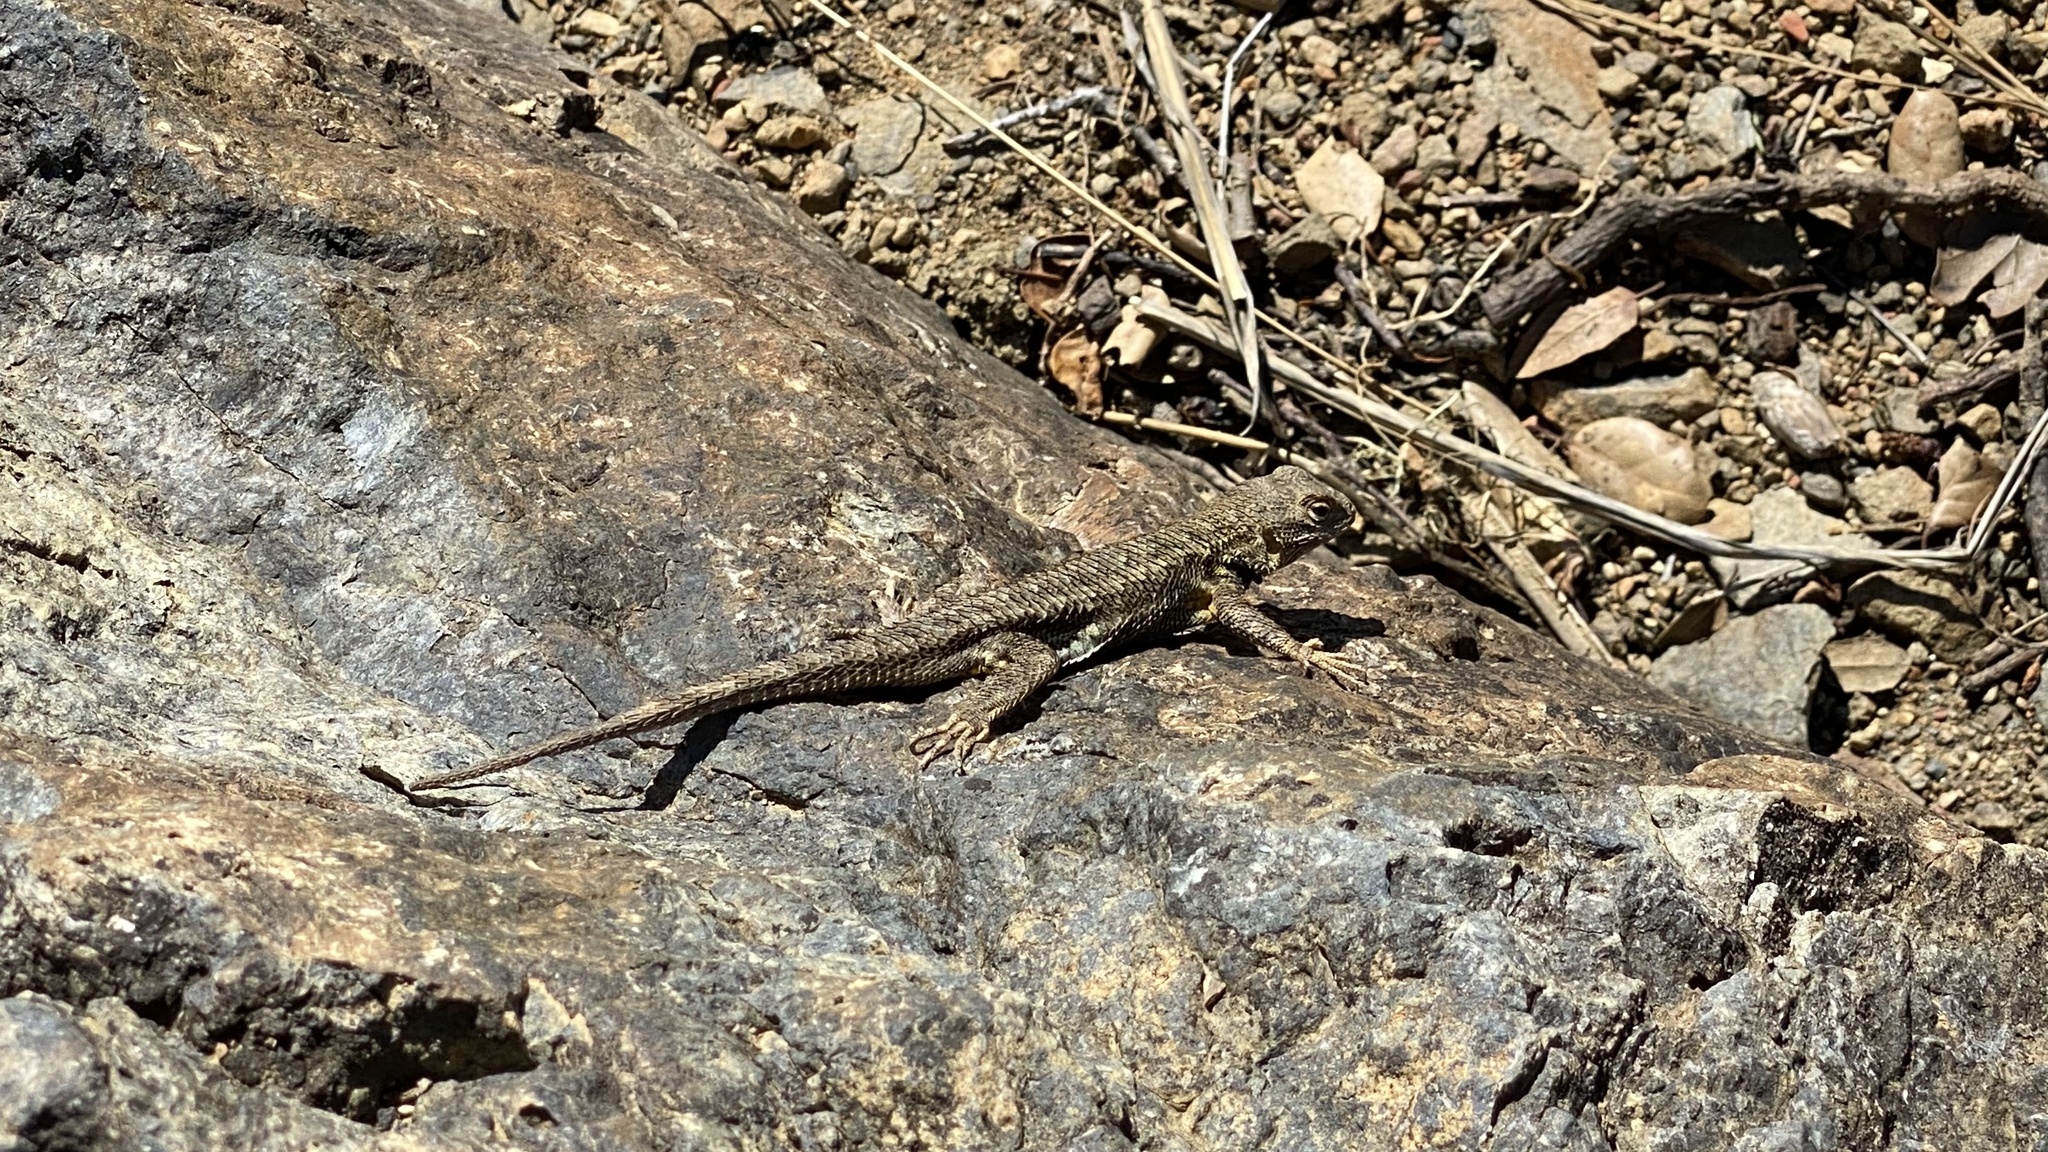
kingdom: Animalia
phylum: Chordata
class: Squamata
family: Phrynosomatidae
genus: Sceloporus
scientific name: Sceloporus occidentalis
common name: Western fence lizard
